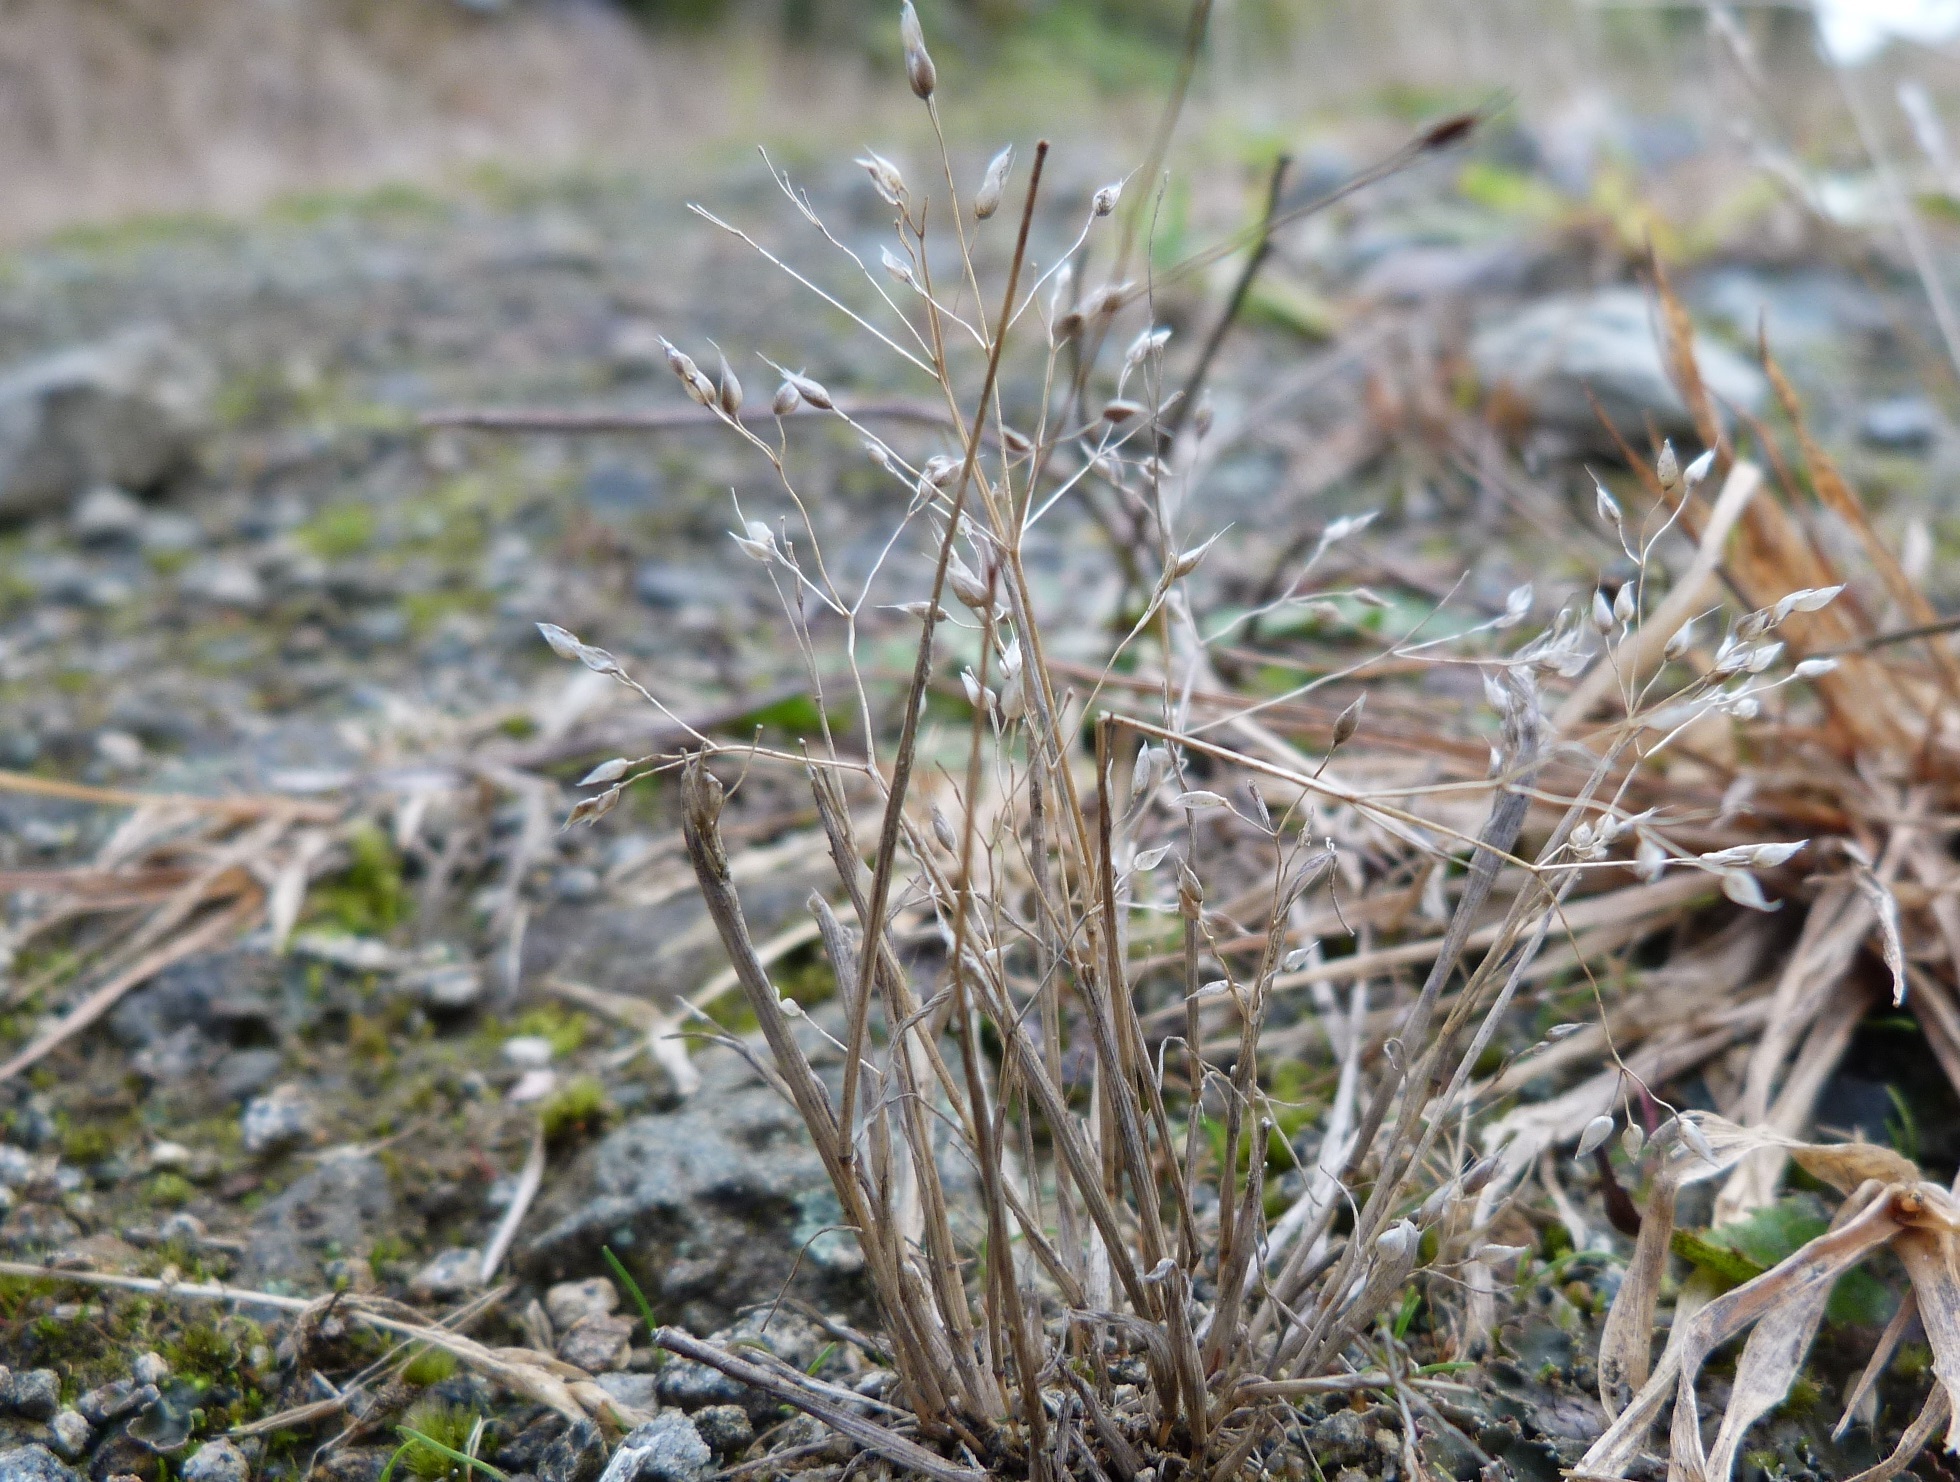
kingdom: Plantae
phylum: Tracheophyta
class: Liliopsida
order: Poales
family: Poaceae
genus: Aira
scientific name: Aira caryophyllea
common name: Silver hairgrass
